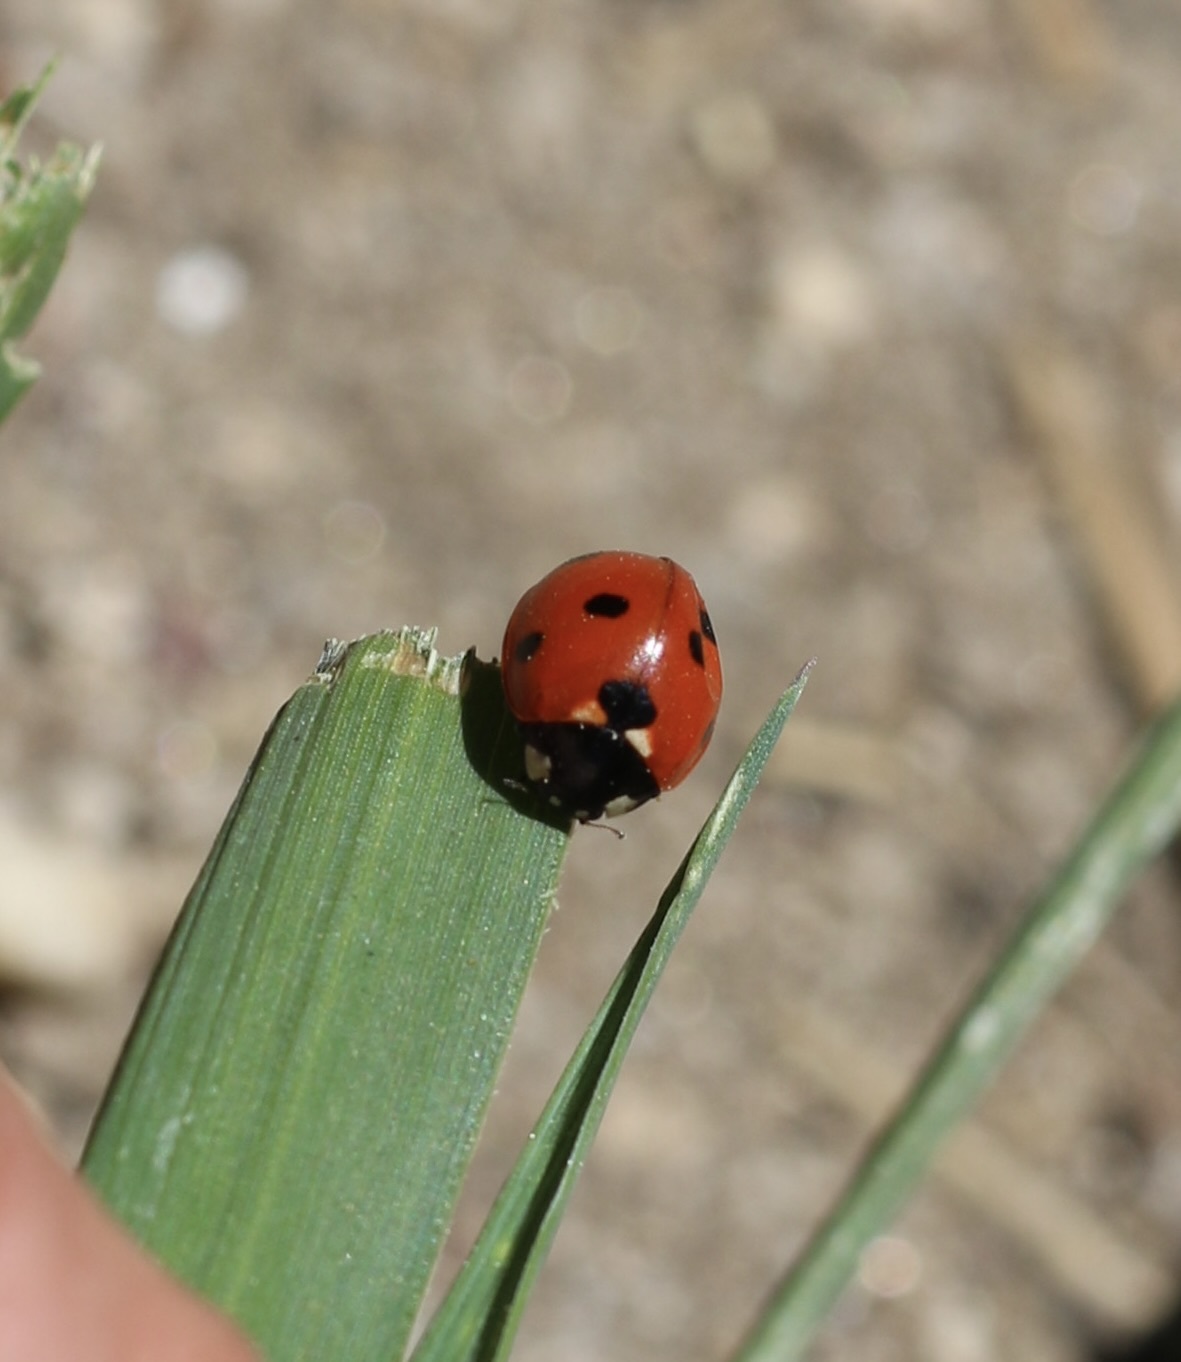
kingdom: Animalia
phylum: Arthropoda
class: Insecta
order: Coleoptera
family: Coccinellidae
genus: Coccinella
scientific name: Coccinella septempunctata
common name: Sevenspotted lady beetle
